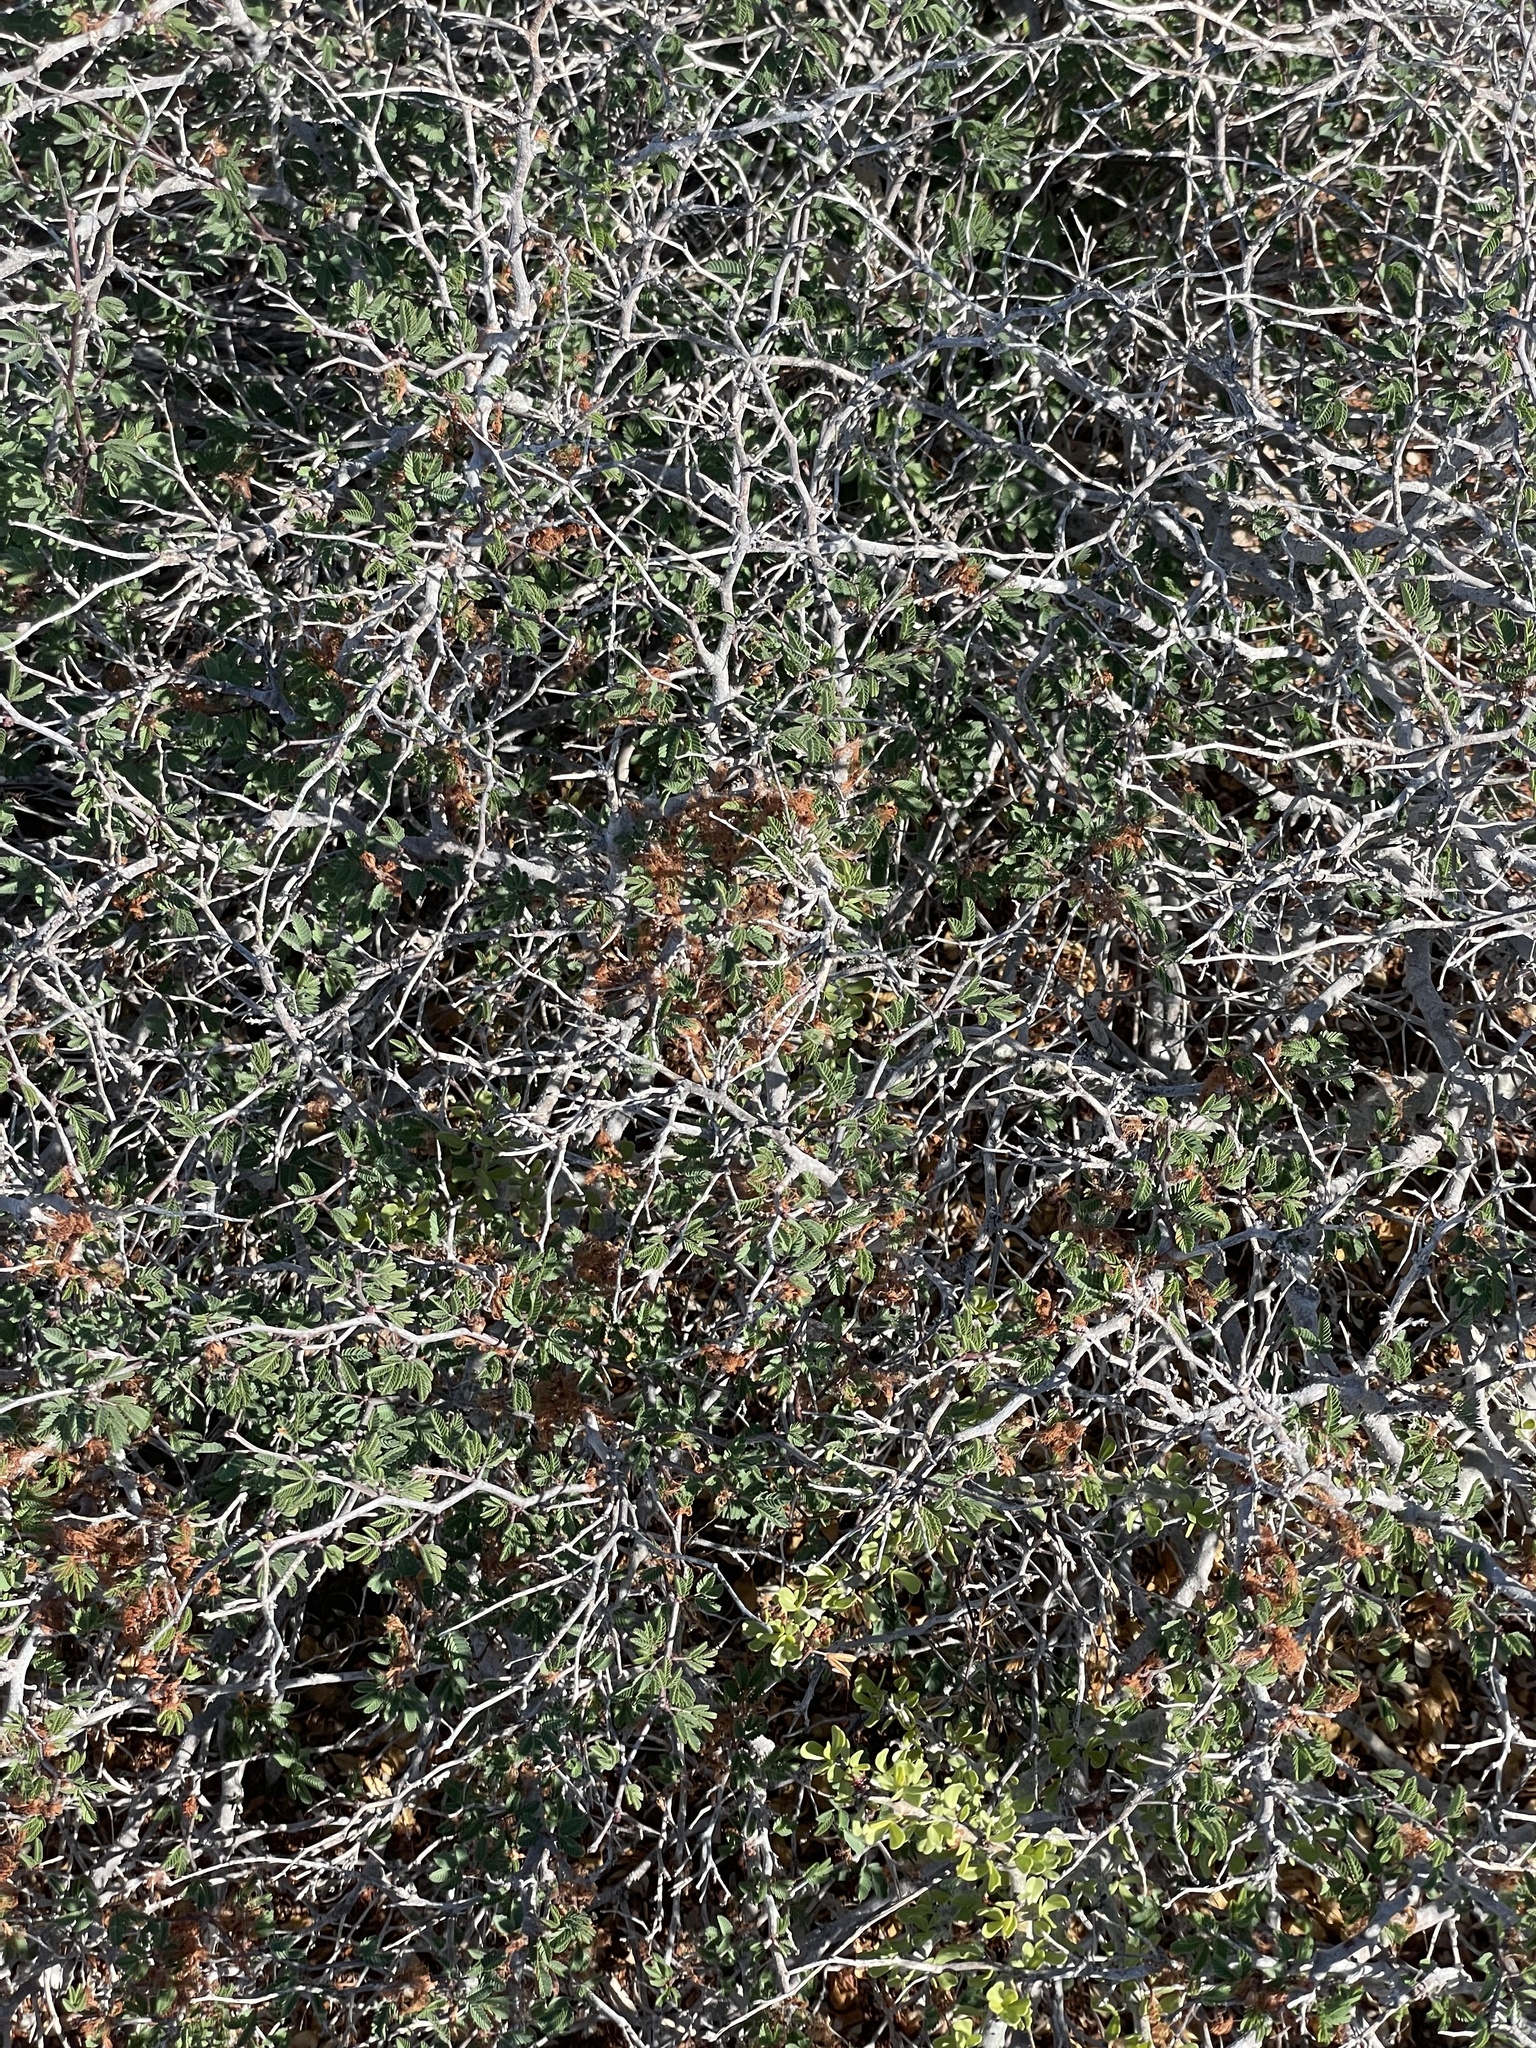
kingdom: Plantae
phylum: Tracheophyta
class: Magnoliopsida
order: Fabales
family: Fabaceae
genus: Calliandra
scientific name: Calliandra californica
